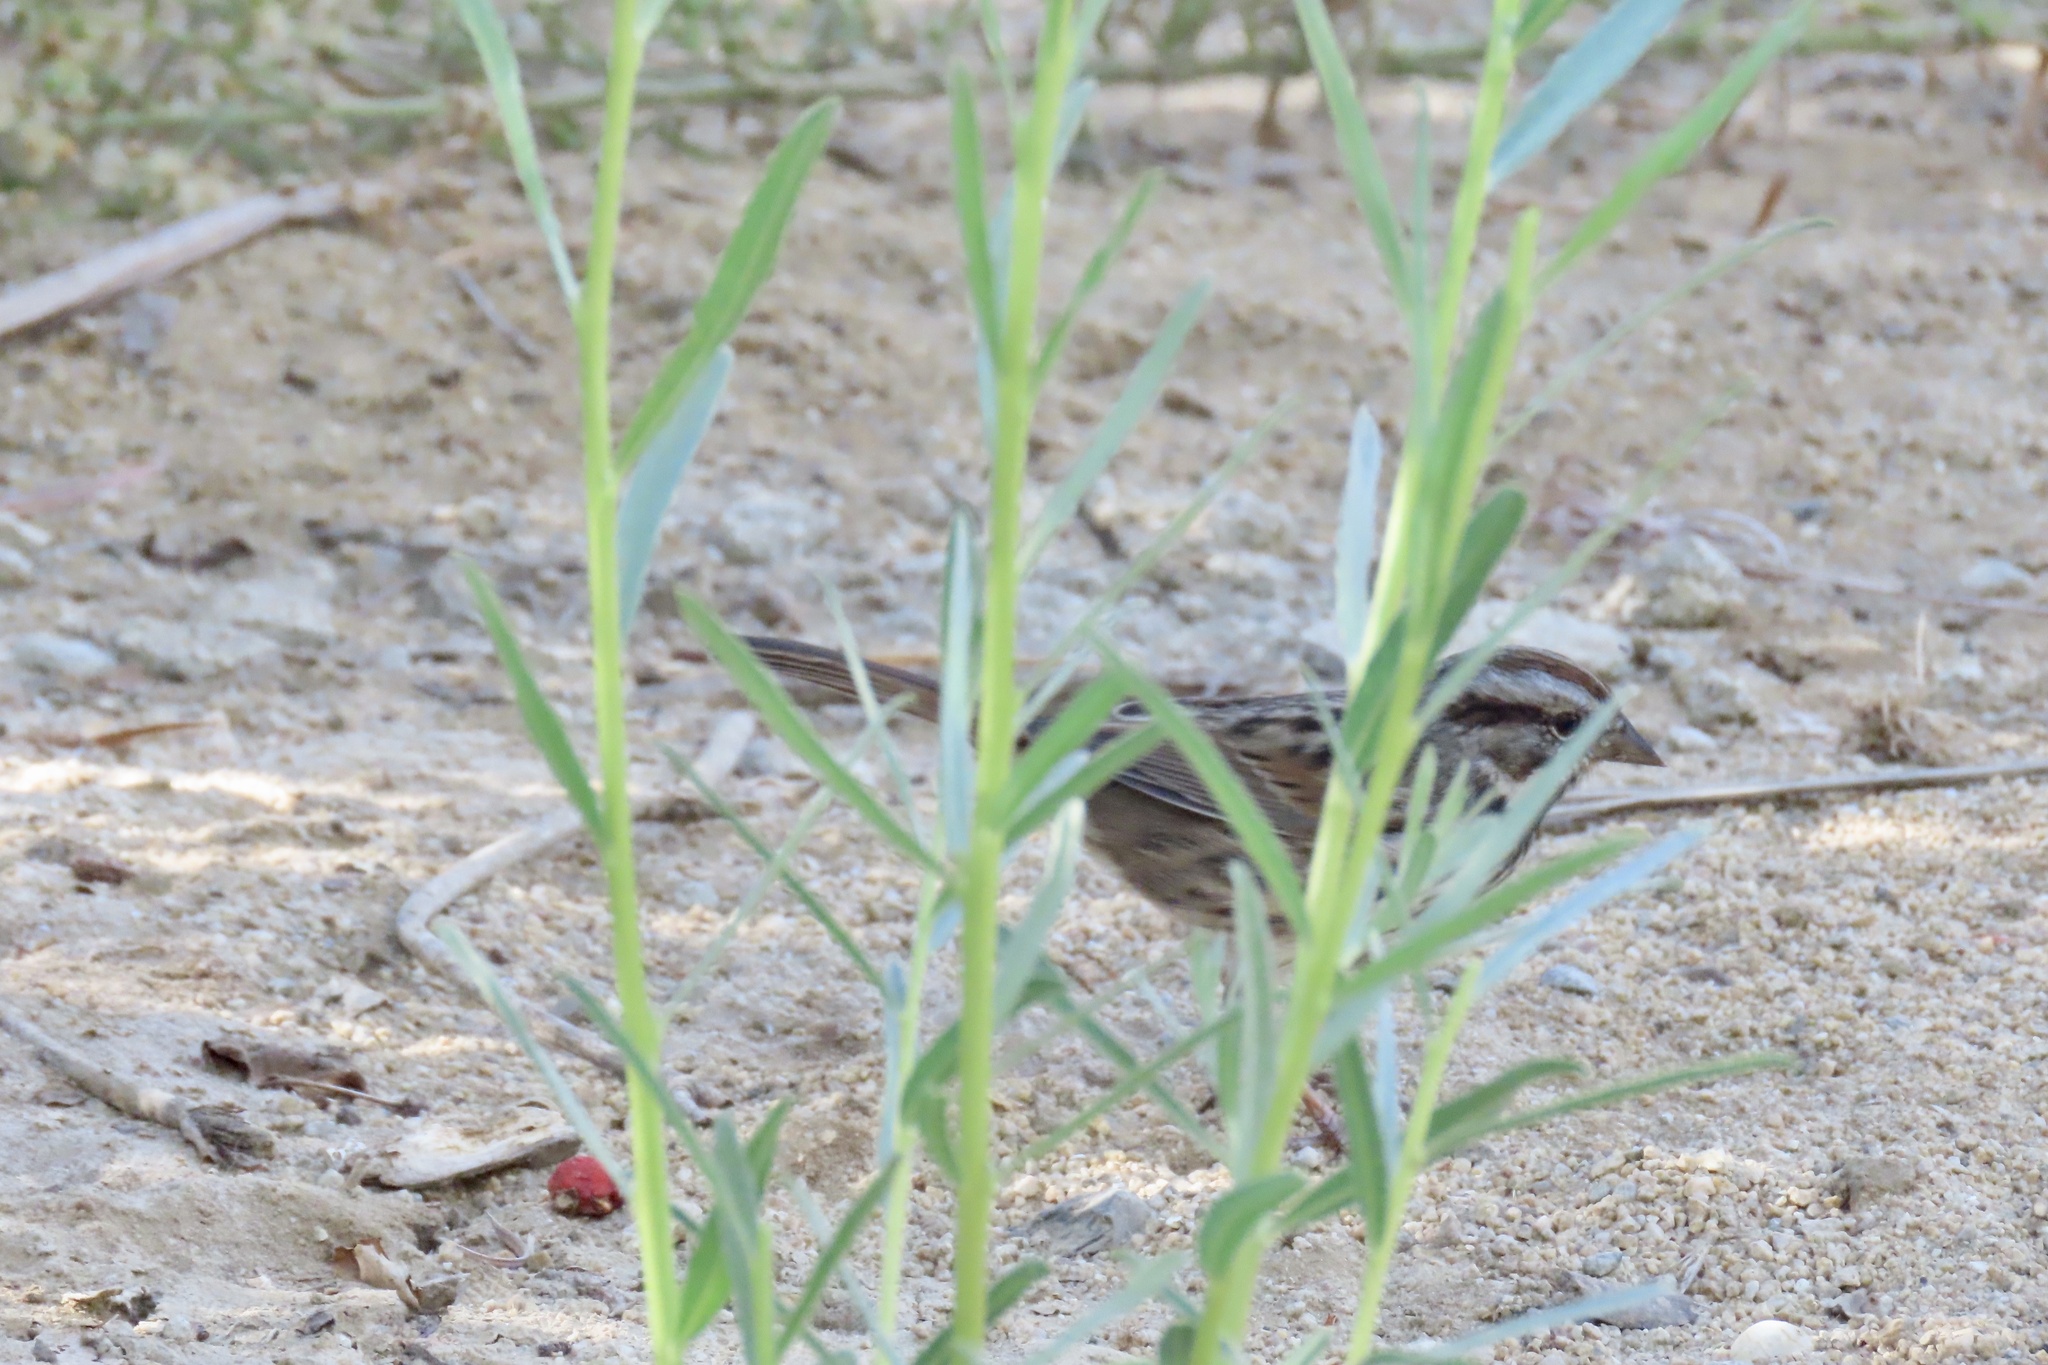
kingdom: Animalia
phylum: Chordata
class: Aves
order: Passeriformes
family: Passerellidae
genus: Melospiza
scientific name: Melospiza melodia
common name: Song sparrow
